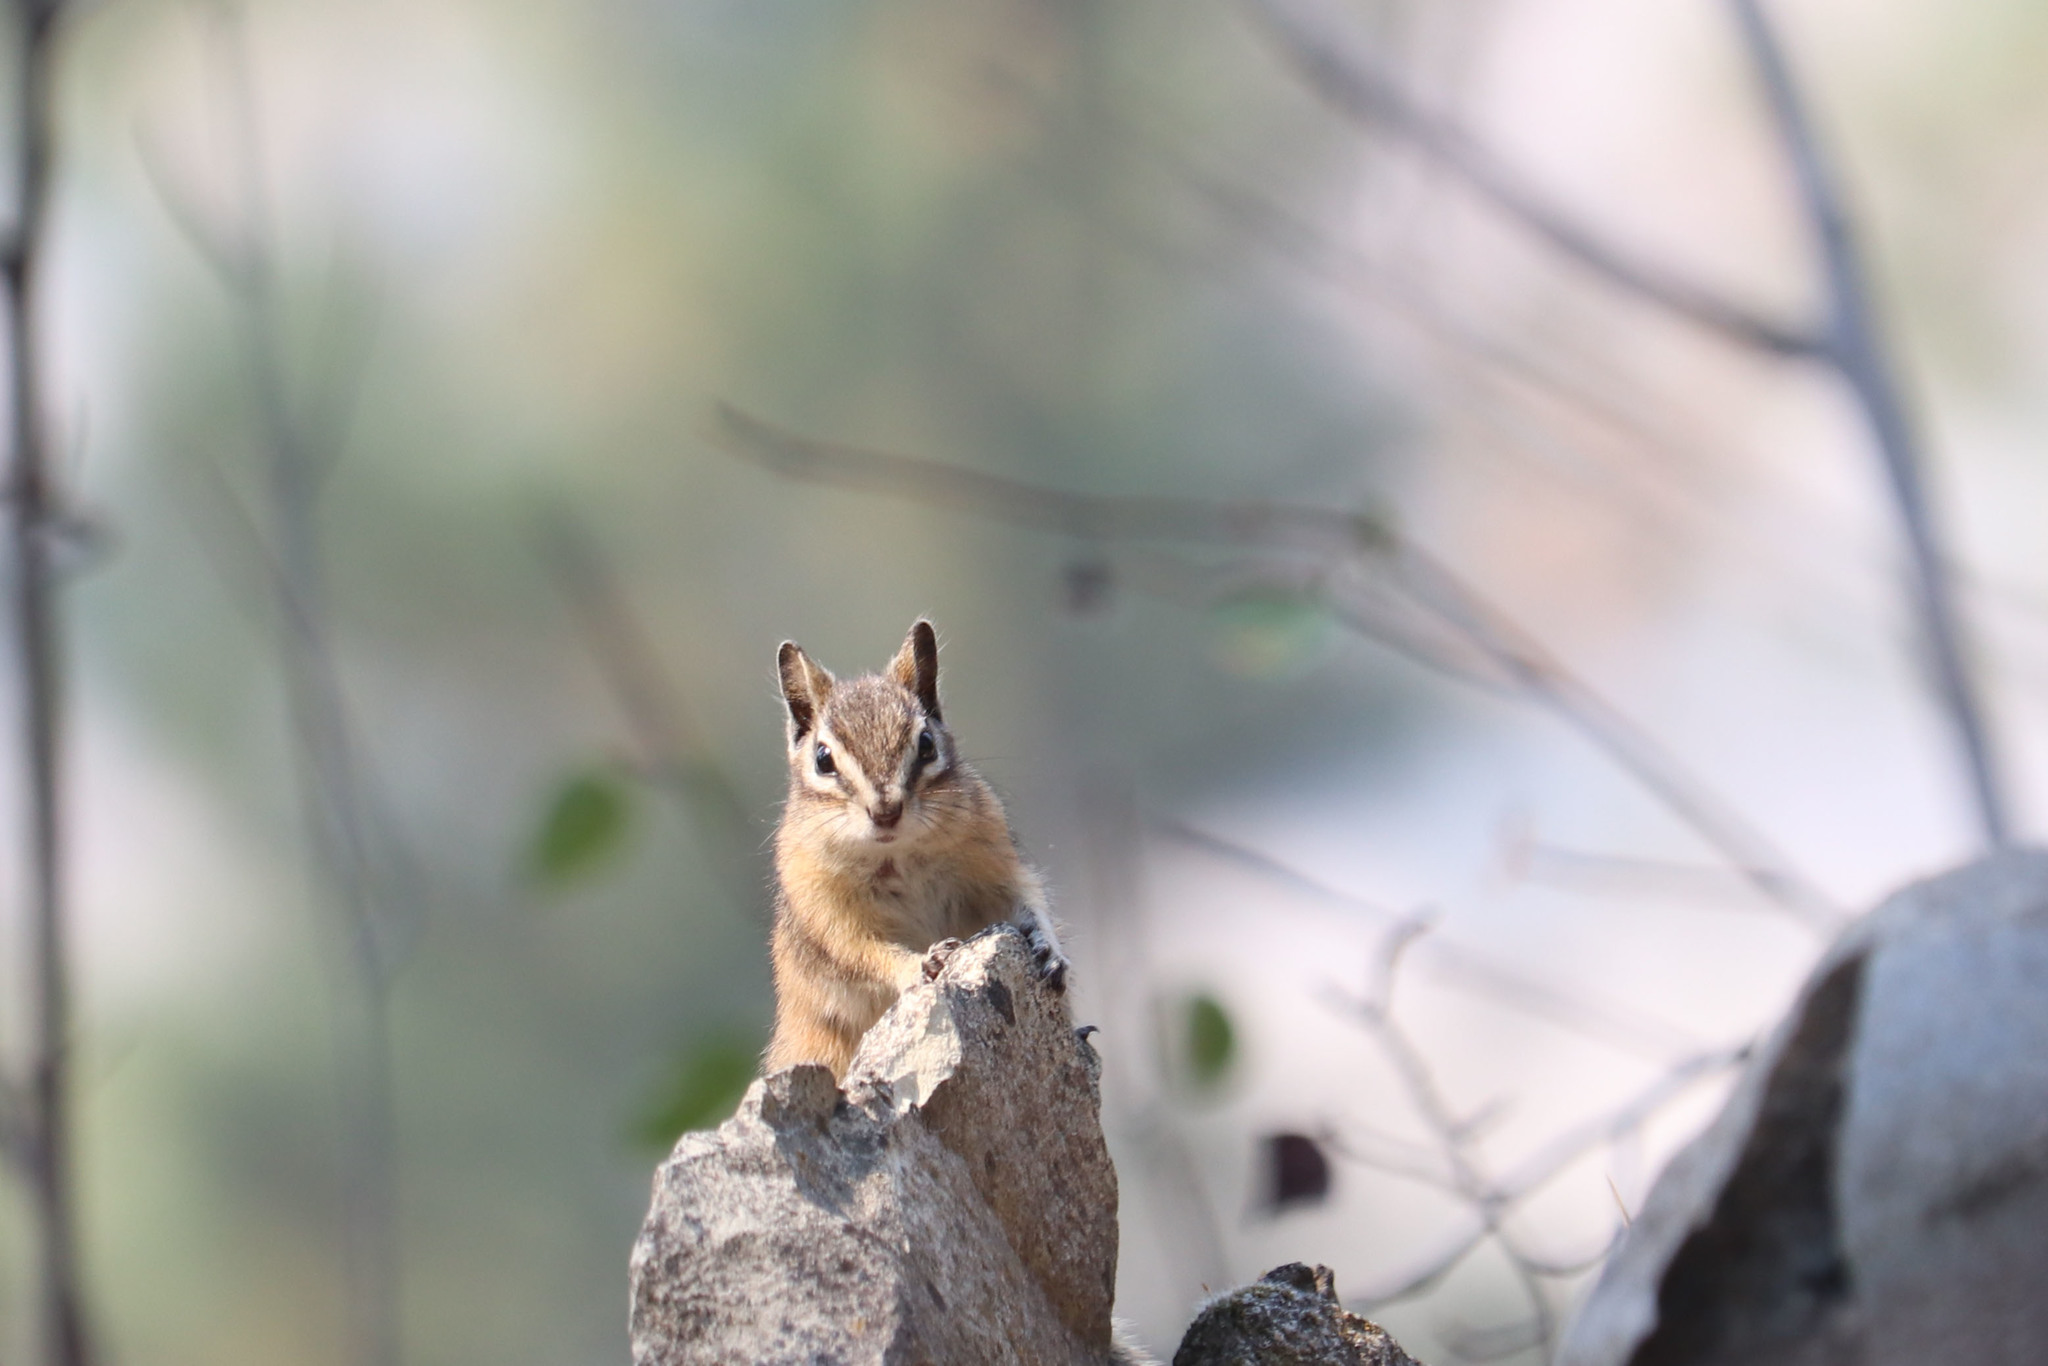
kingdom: Animalia
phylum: Chordata
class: Mammalia
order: Rodentia
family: Sciuridae
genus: Tamias
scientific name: Tamias amoenus
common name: Yellow-pine chipmunk
